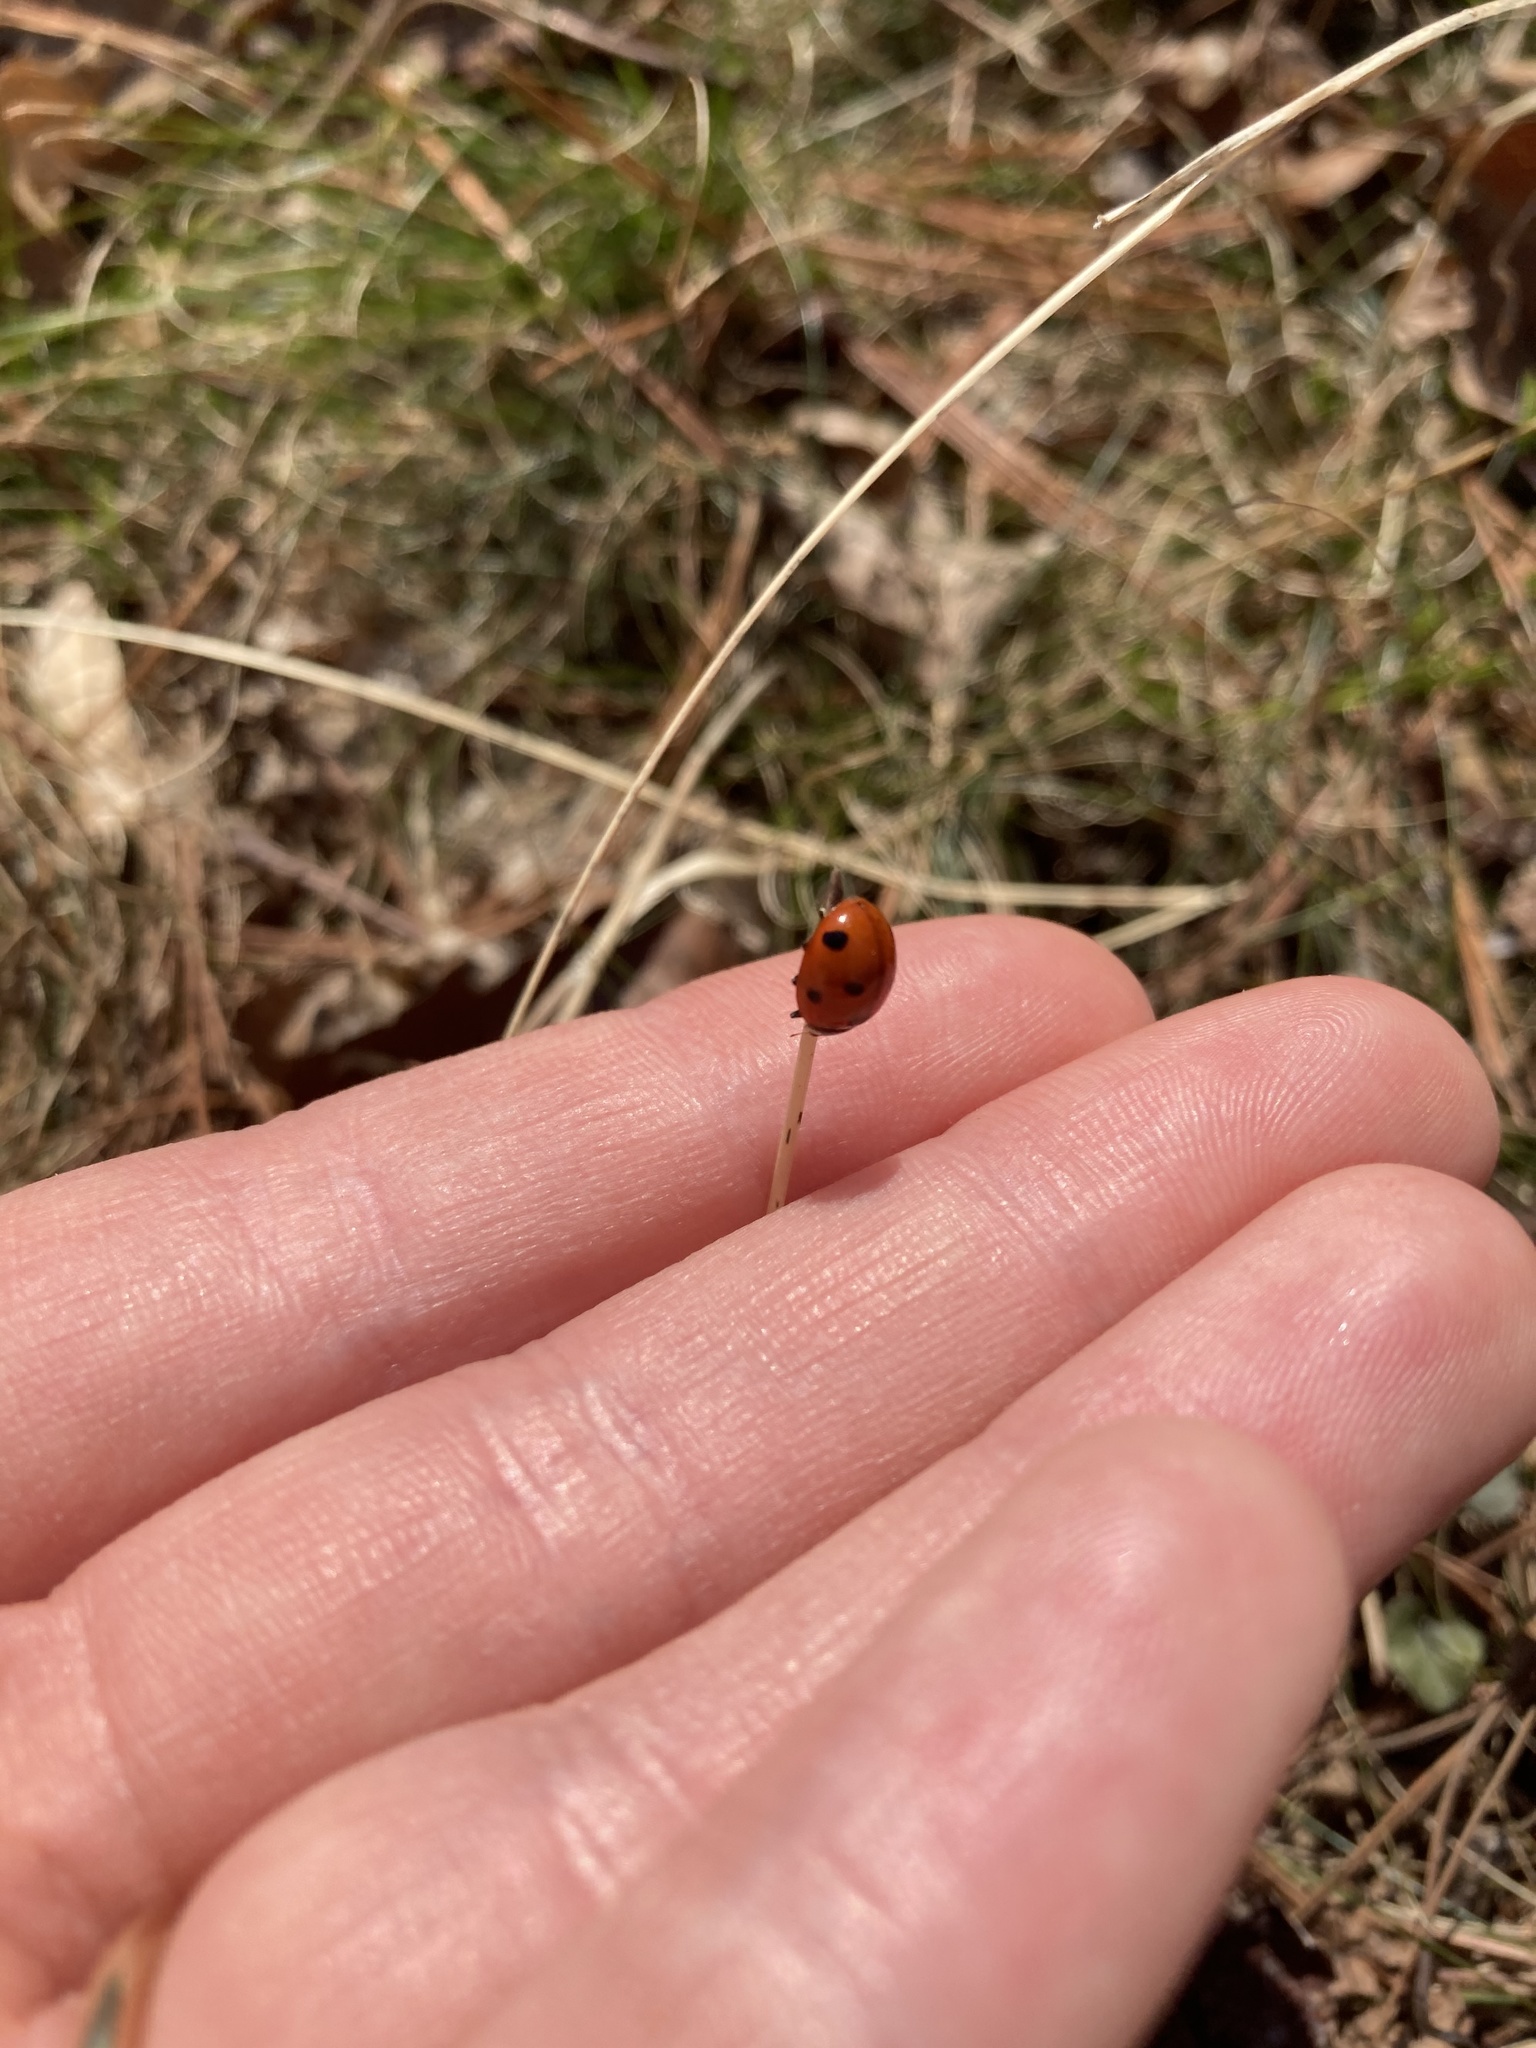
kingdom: Animalia
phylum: Arthropoda
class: Insecta
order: Coleoptera
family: Coccinellidae
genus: Coccinella
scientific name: Coccinella septempunctata
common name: Sevenspotted lady beetle
